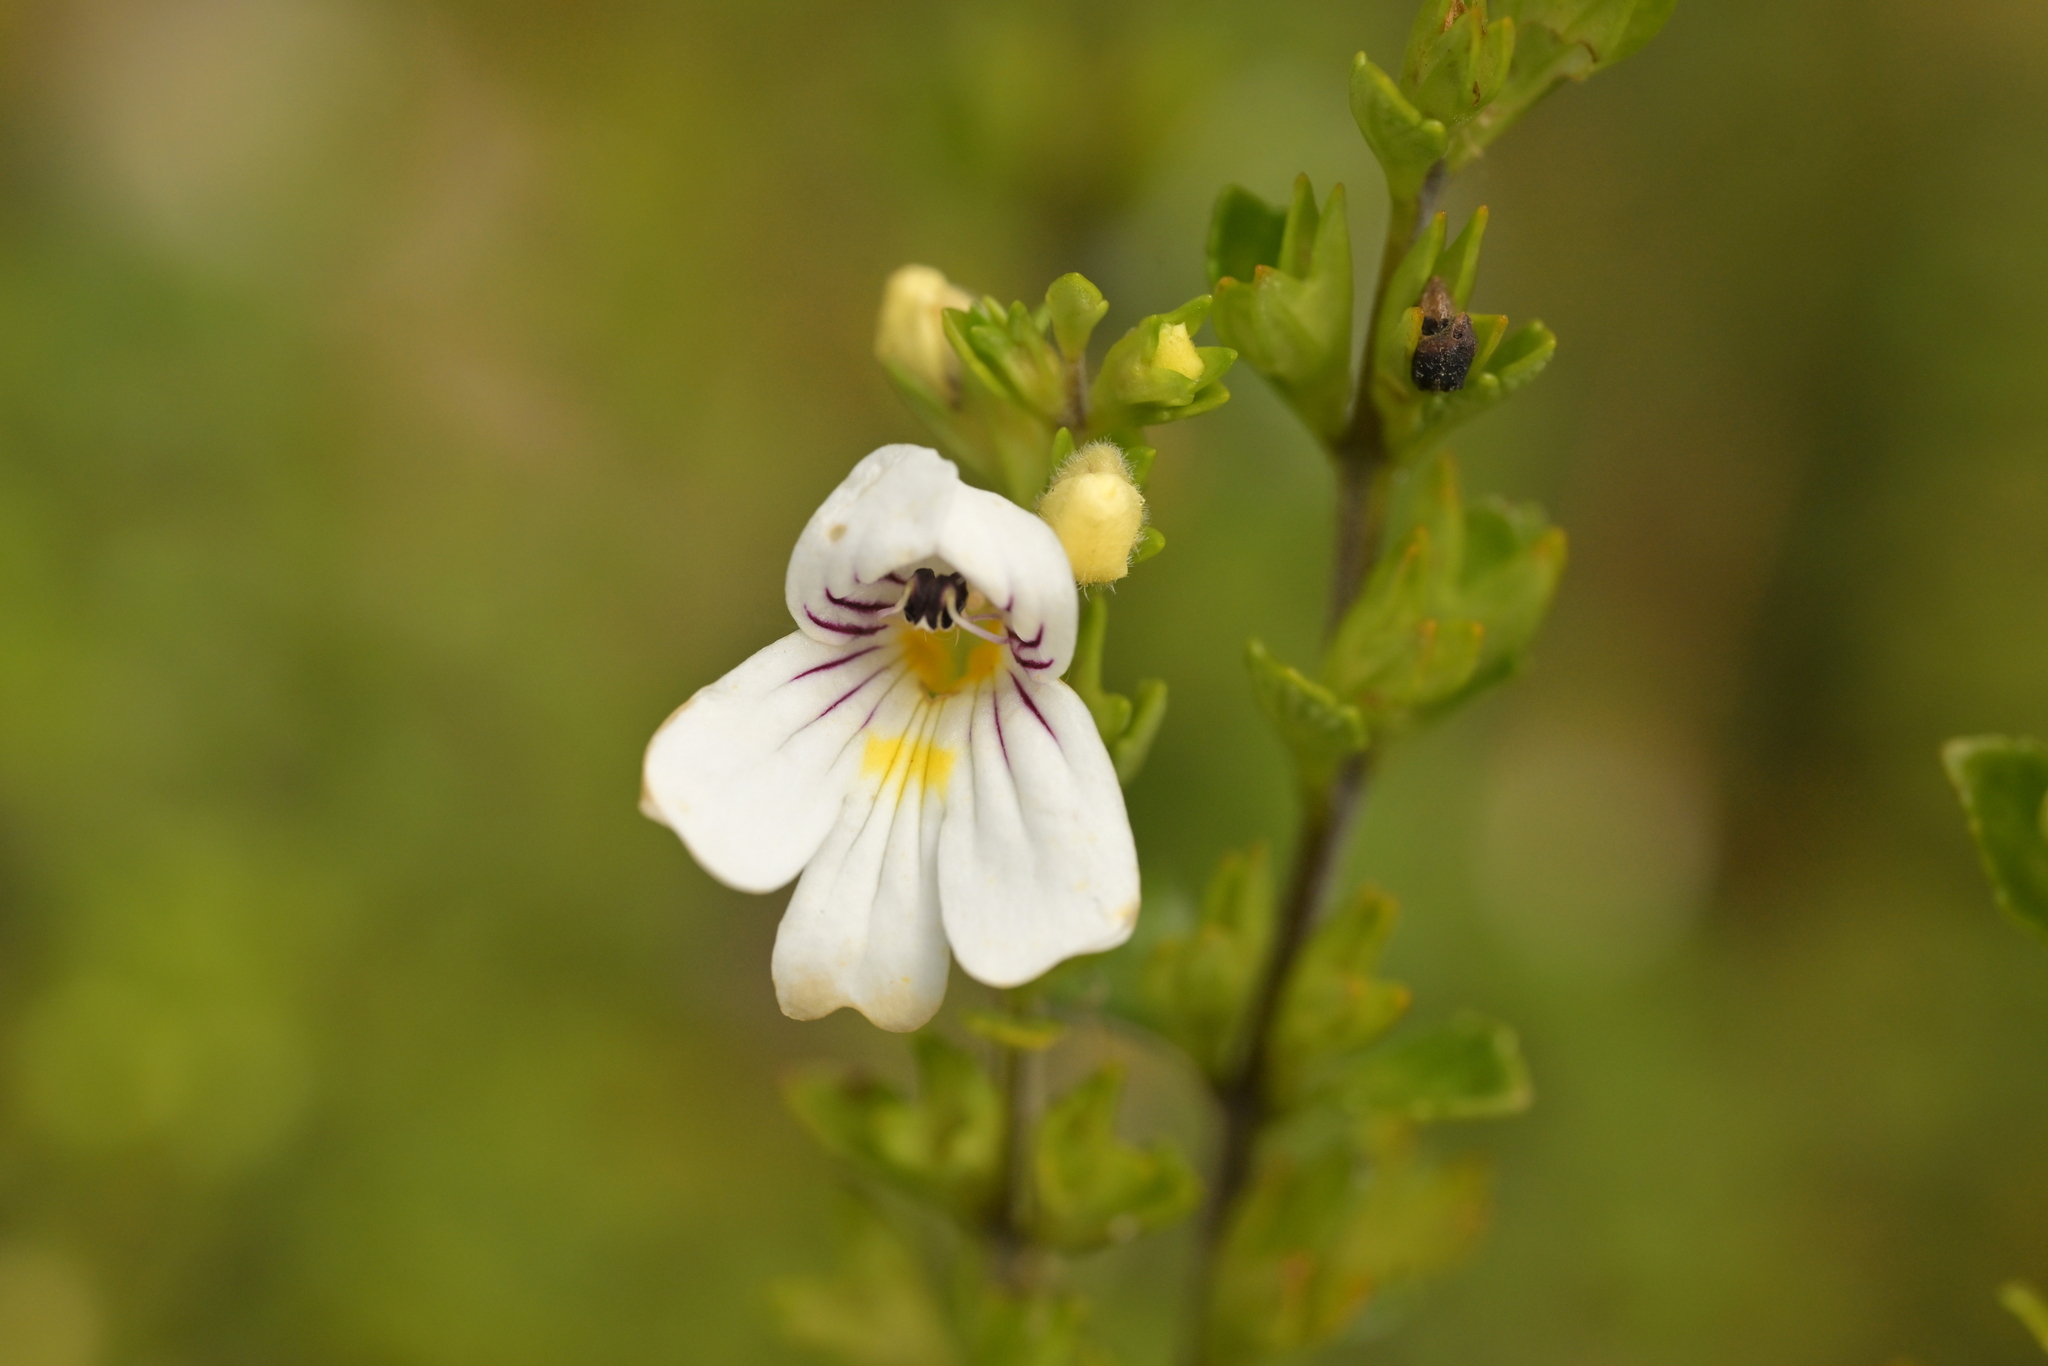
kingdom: Plantae
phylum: Tracheophyta
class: Magnoliopsida
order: Lamiales
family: Orobanchaceae
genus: Euphrasia
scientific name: Euphrasia cuneata
